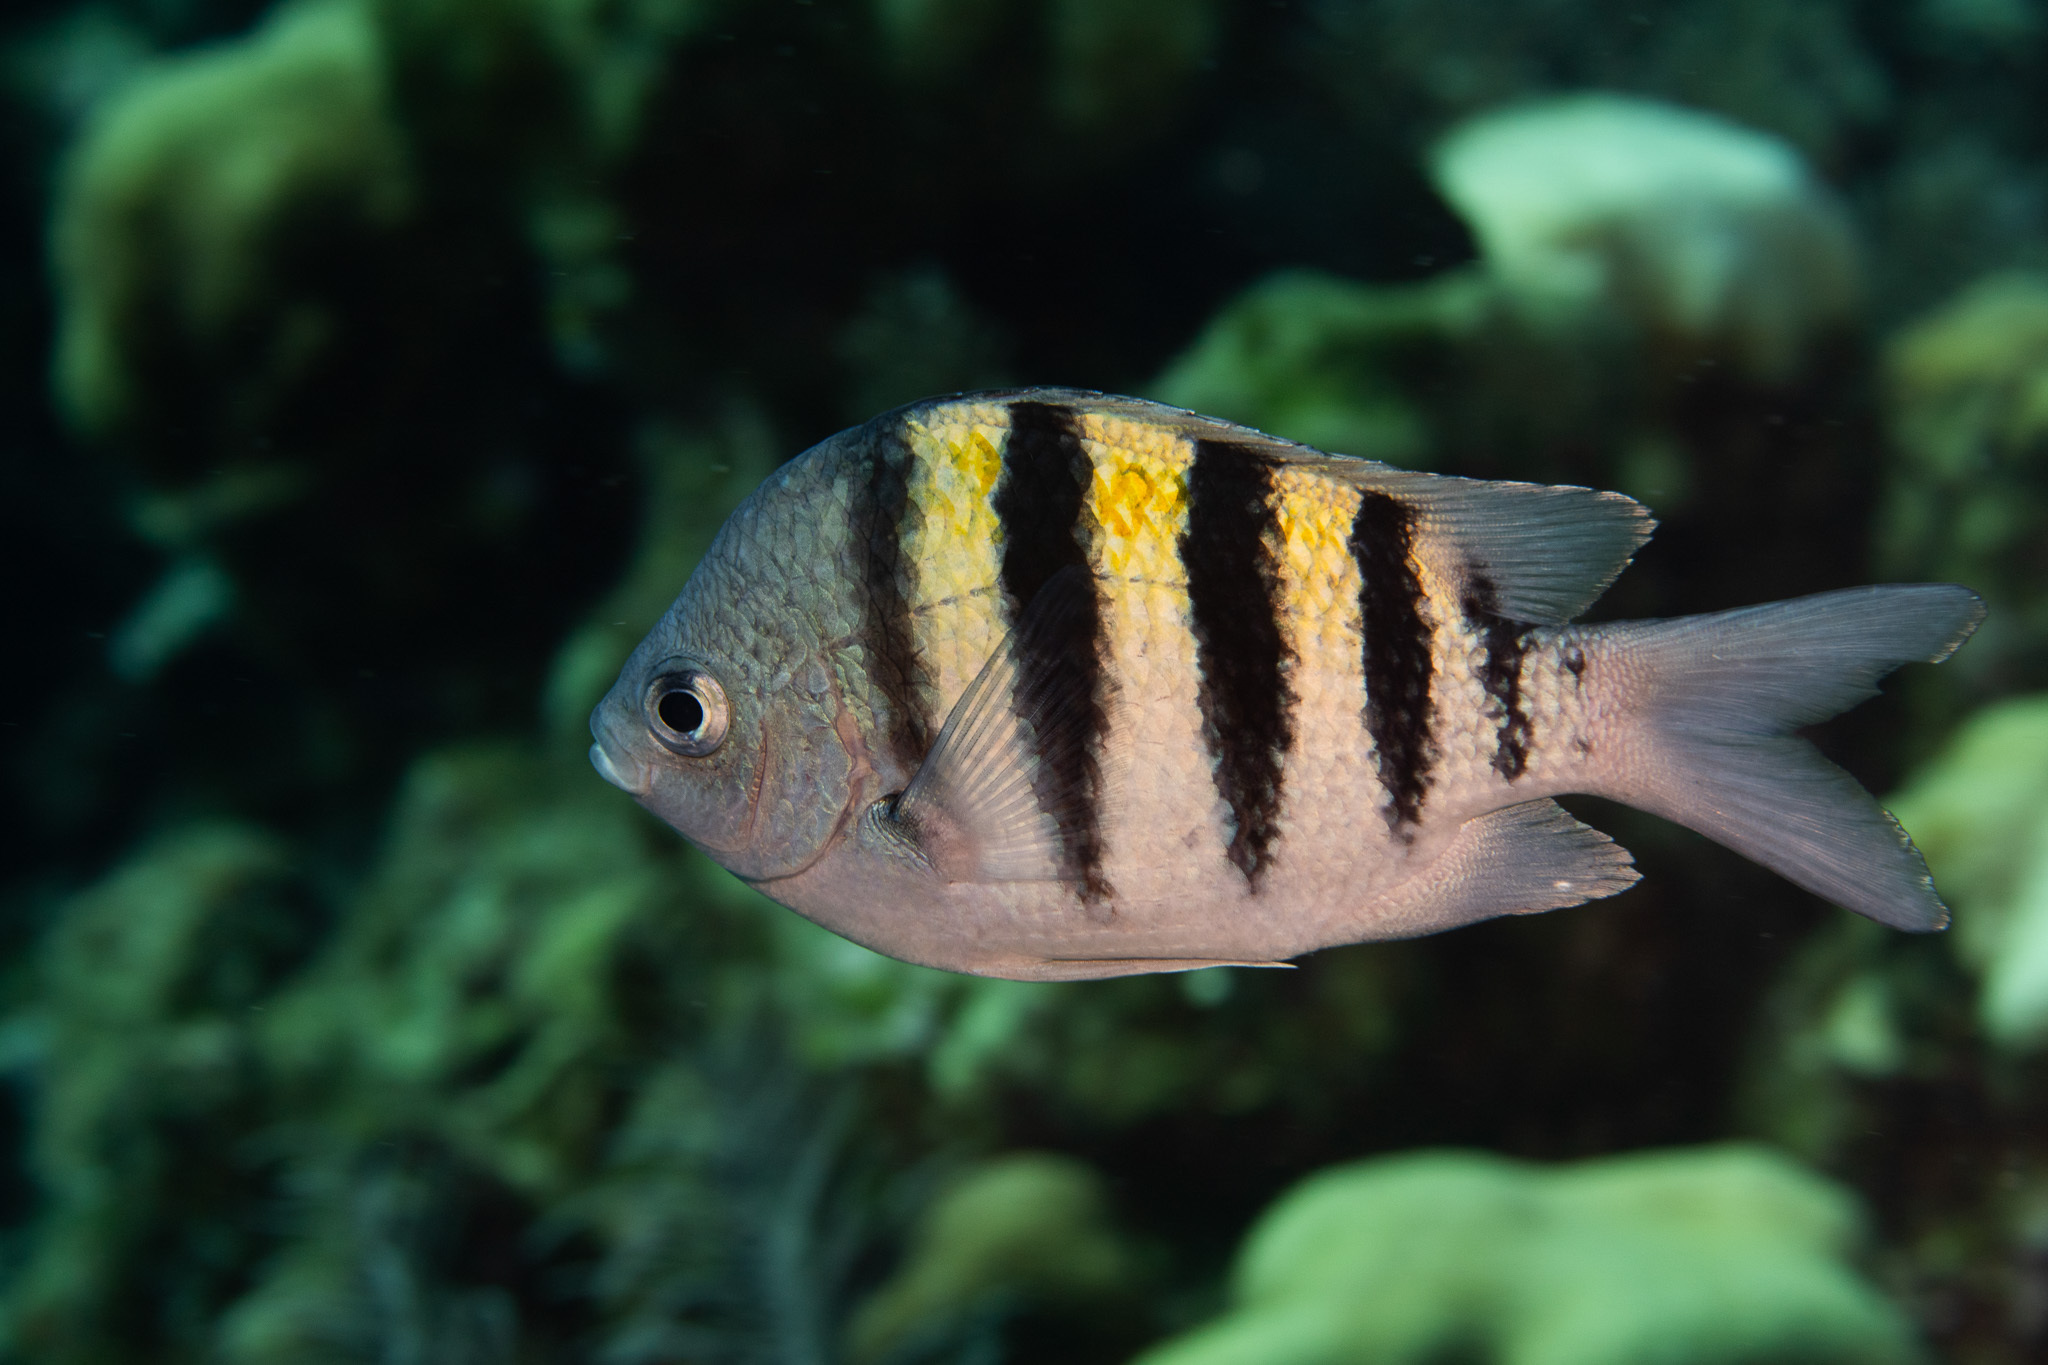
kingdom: Animalia
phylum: Chordata
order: Perciformes
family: Pomacentridae
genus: Abudefduf
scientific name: Abudefduf saxatilis
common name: Sergeant major
